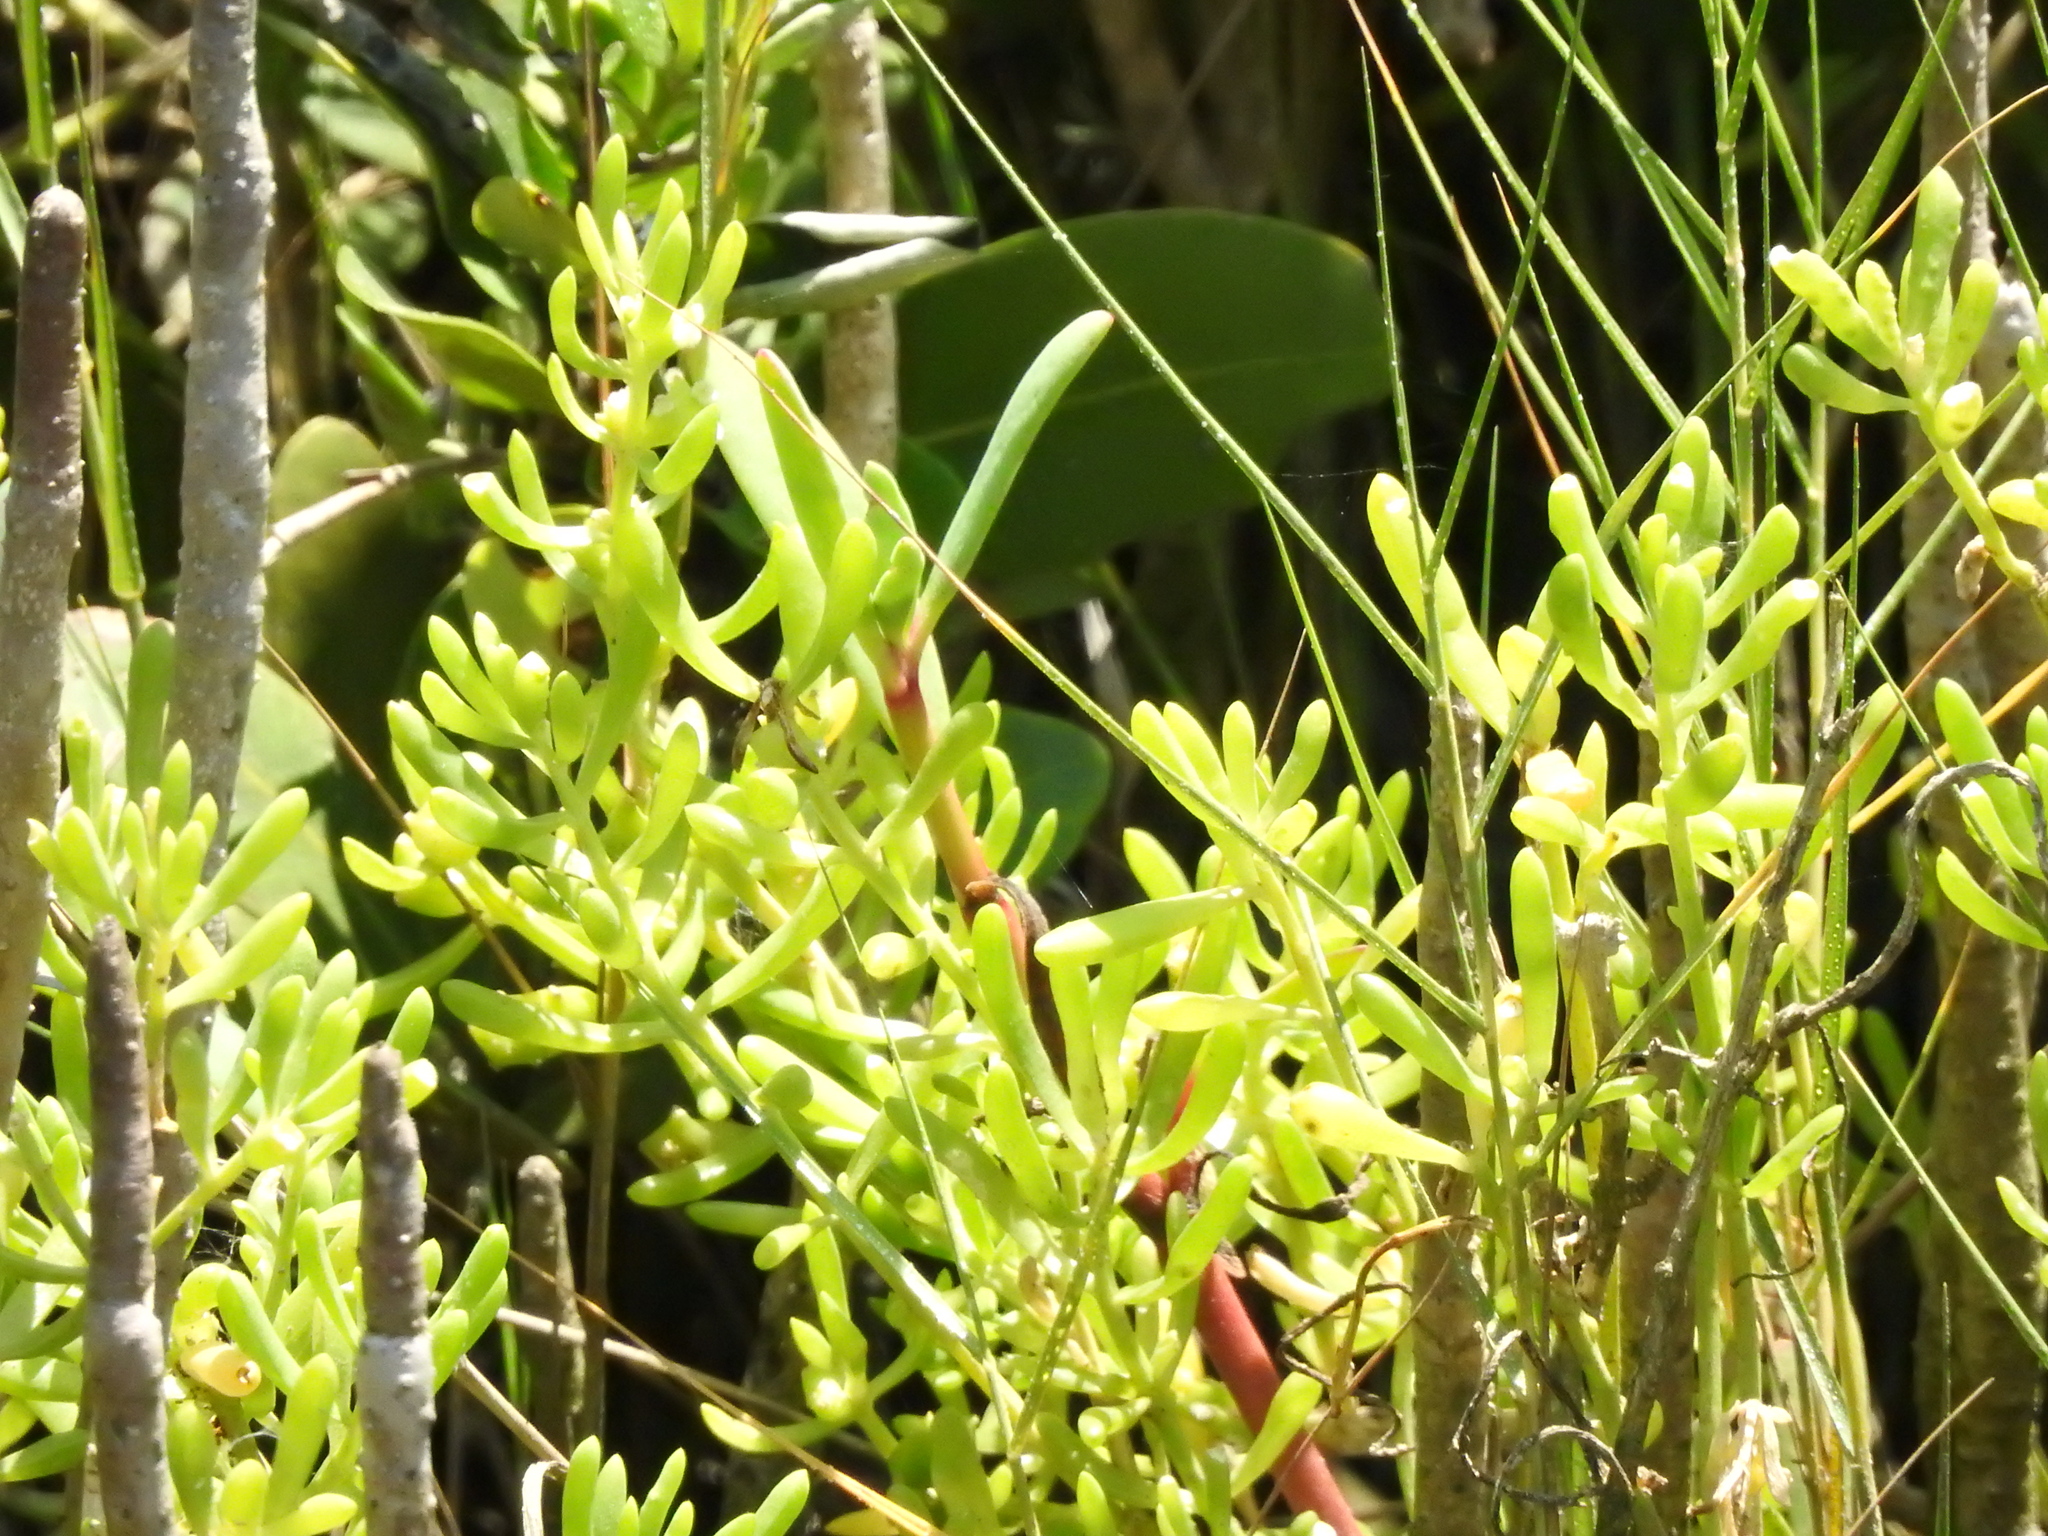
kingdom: Plantae
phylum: Tracheophyta
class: Magnoliopsida
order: Brassicales
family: Bataceae
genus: Batis
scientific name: Batis maritima
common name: Turtleweed
